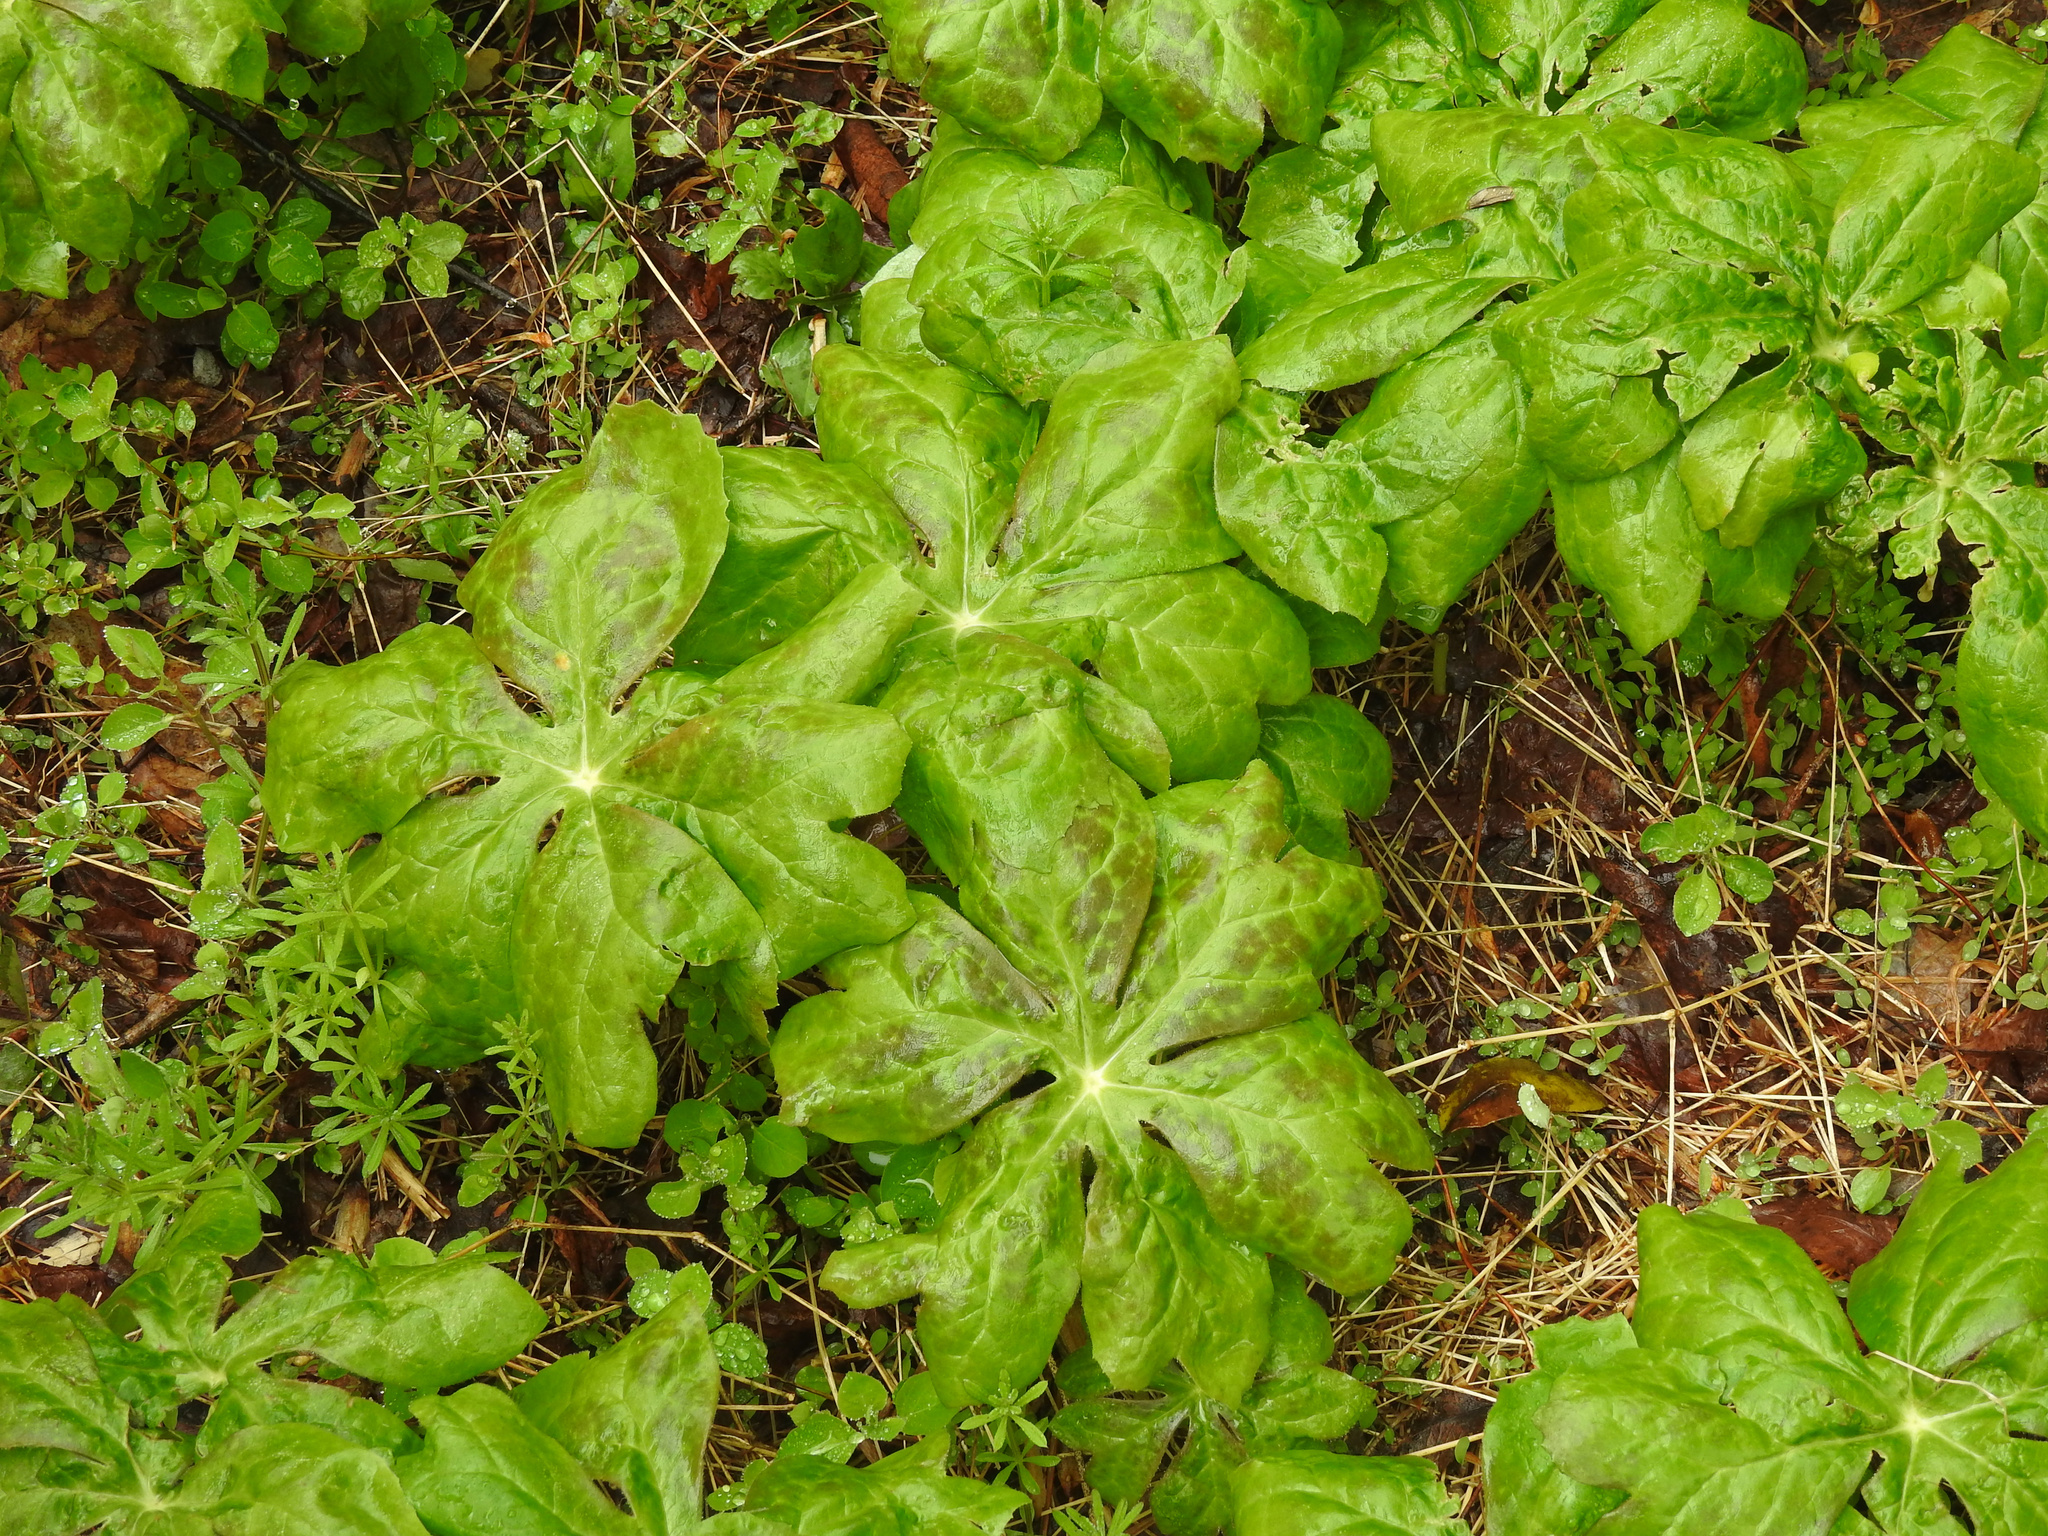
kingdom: Plantae
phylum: Tracheophyta
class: Magnoliopsida
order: Ranunculales
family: Berberidaceae
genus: Podophyllum
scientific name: Podophyllum peltatum
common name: Wild mandrake
